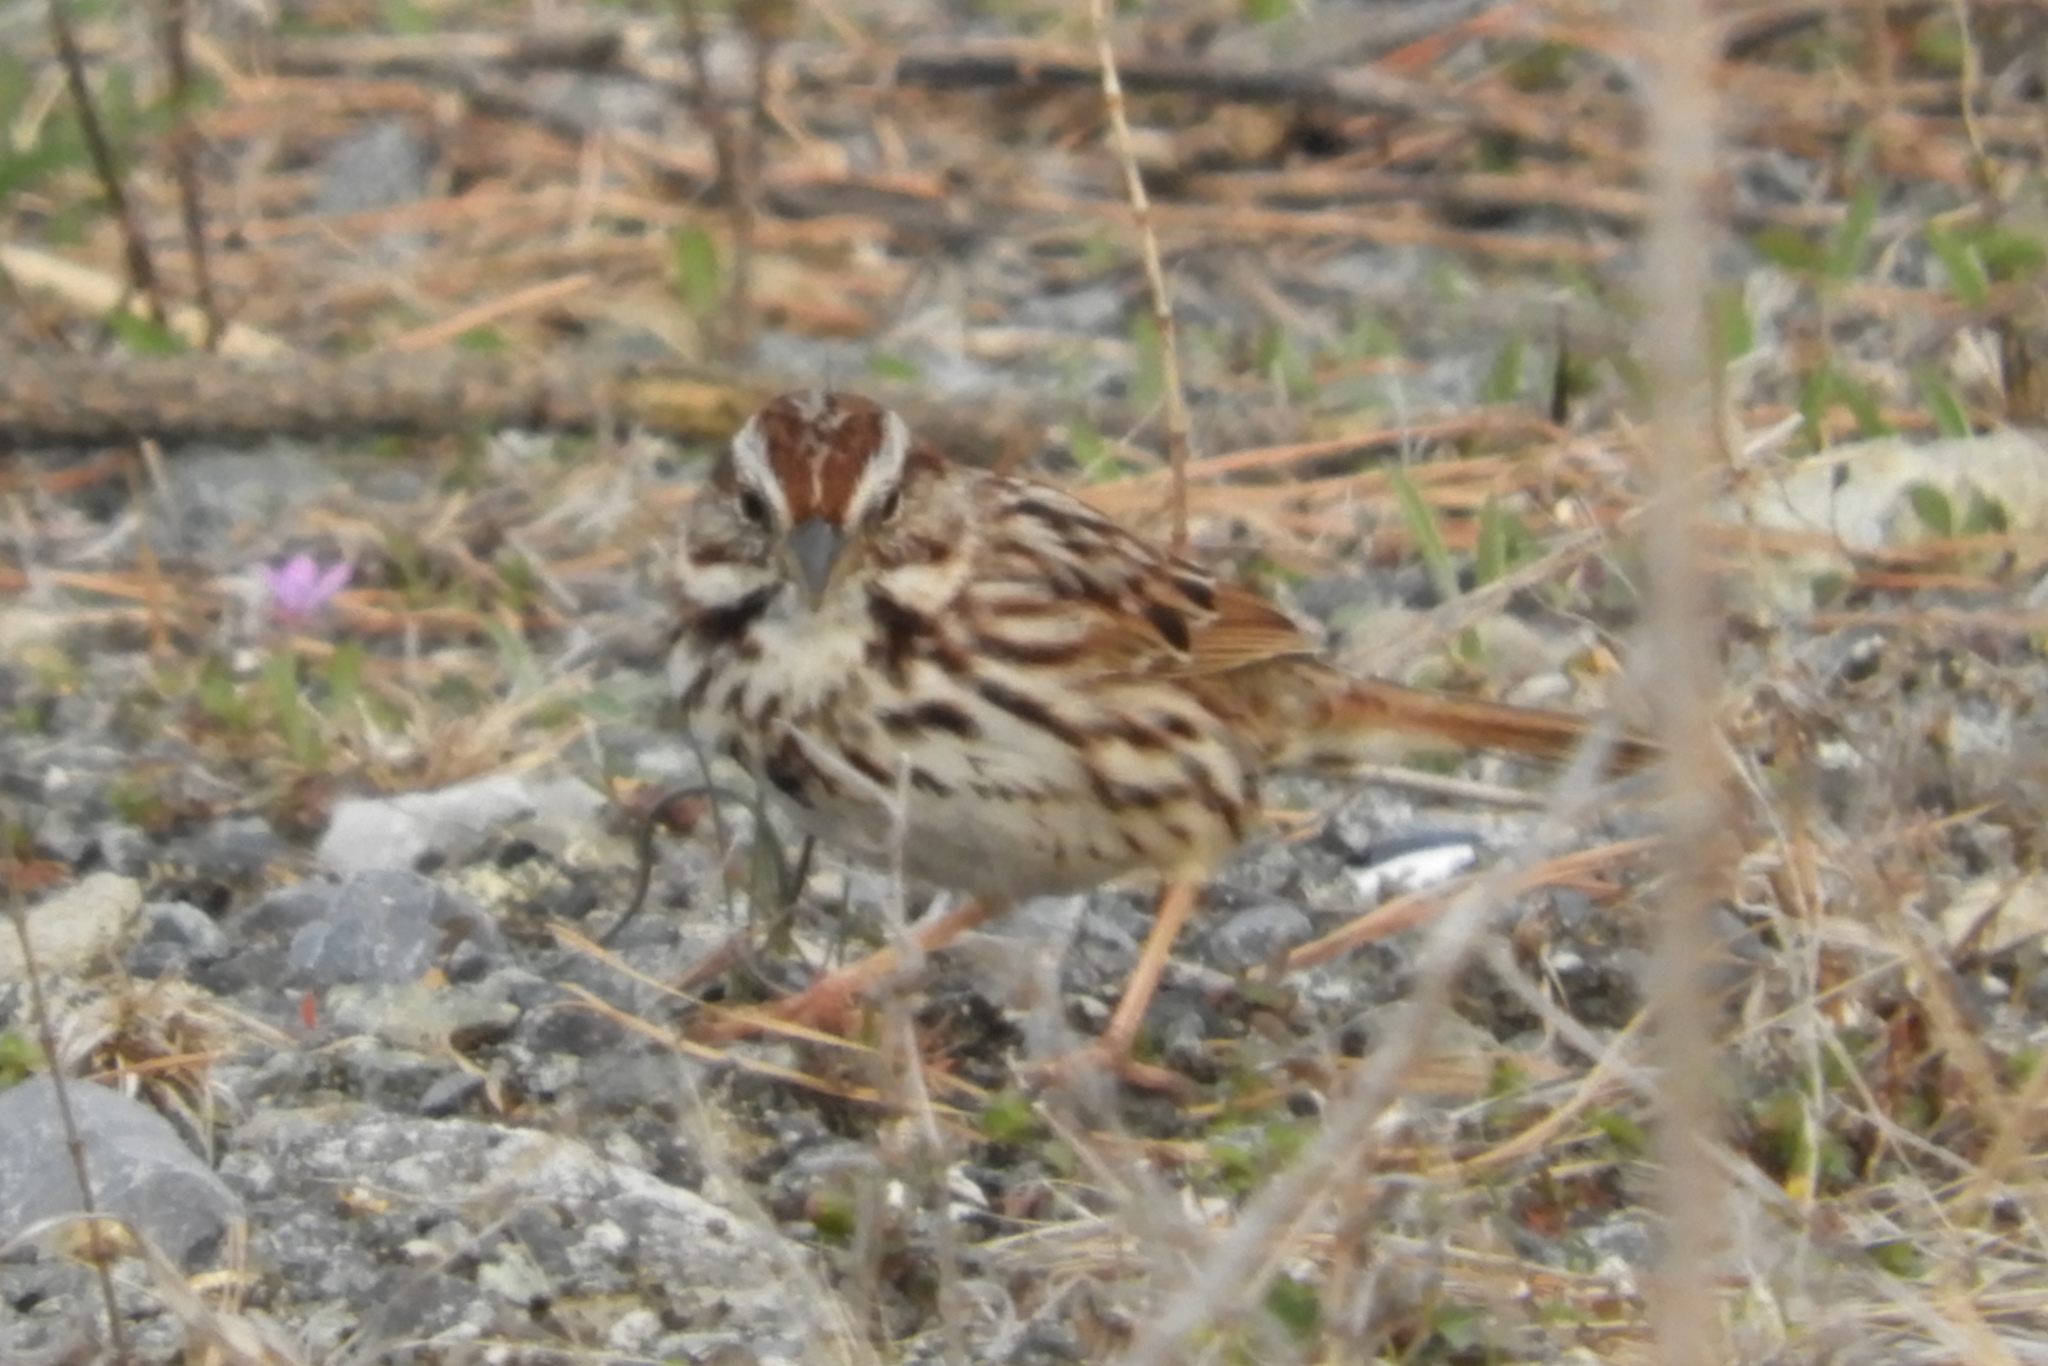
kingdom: Animalia
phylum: Chordata
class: Aves
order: Passeriformes
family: Passerellidae
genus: Melospiza
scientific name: Melospiza melodia
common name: Song sparrow
